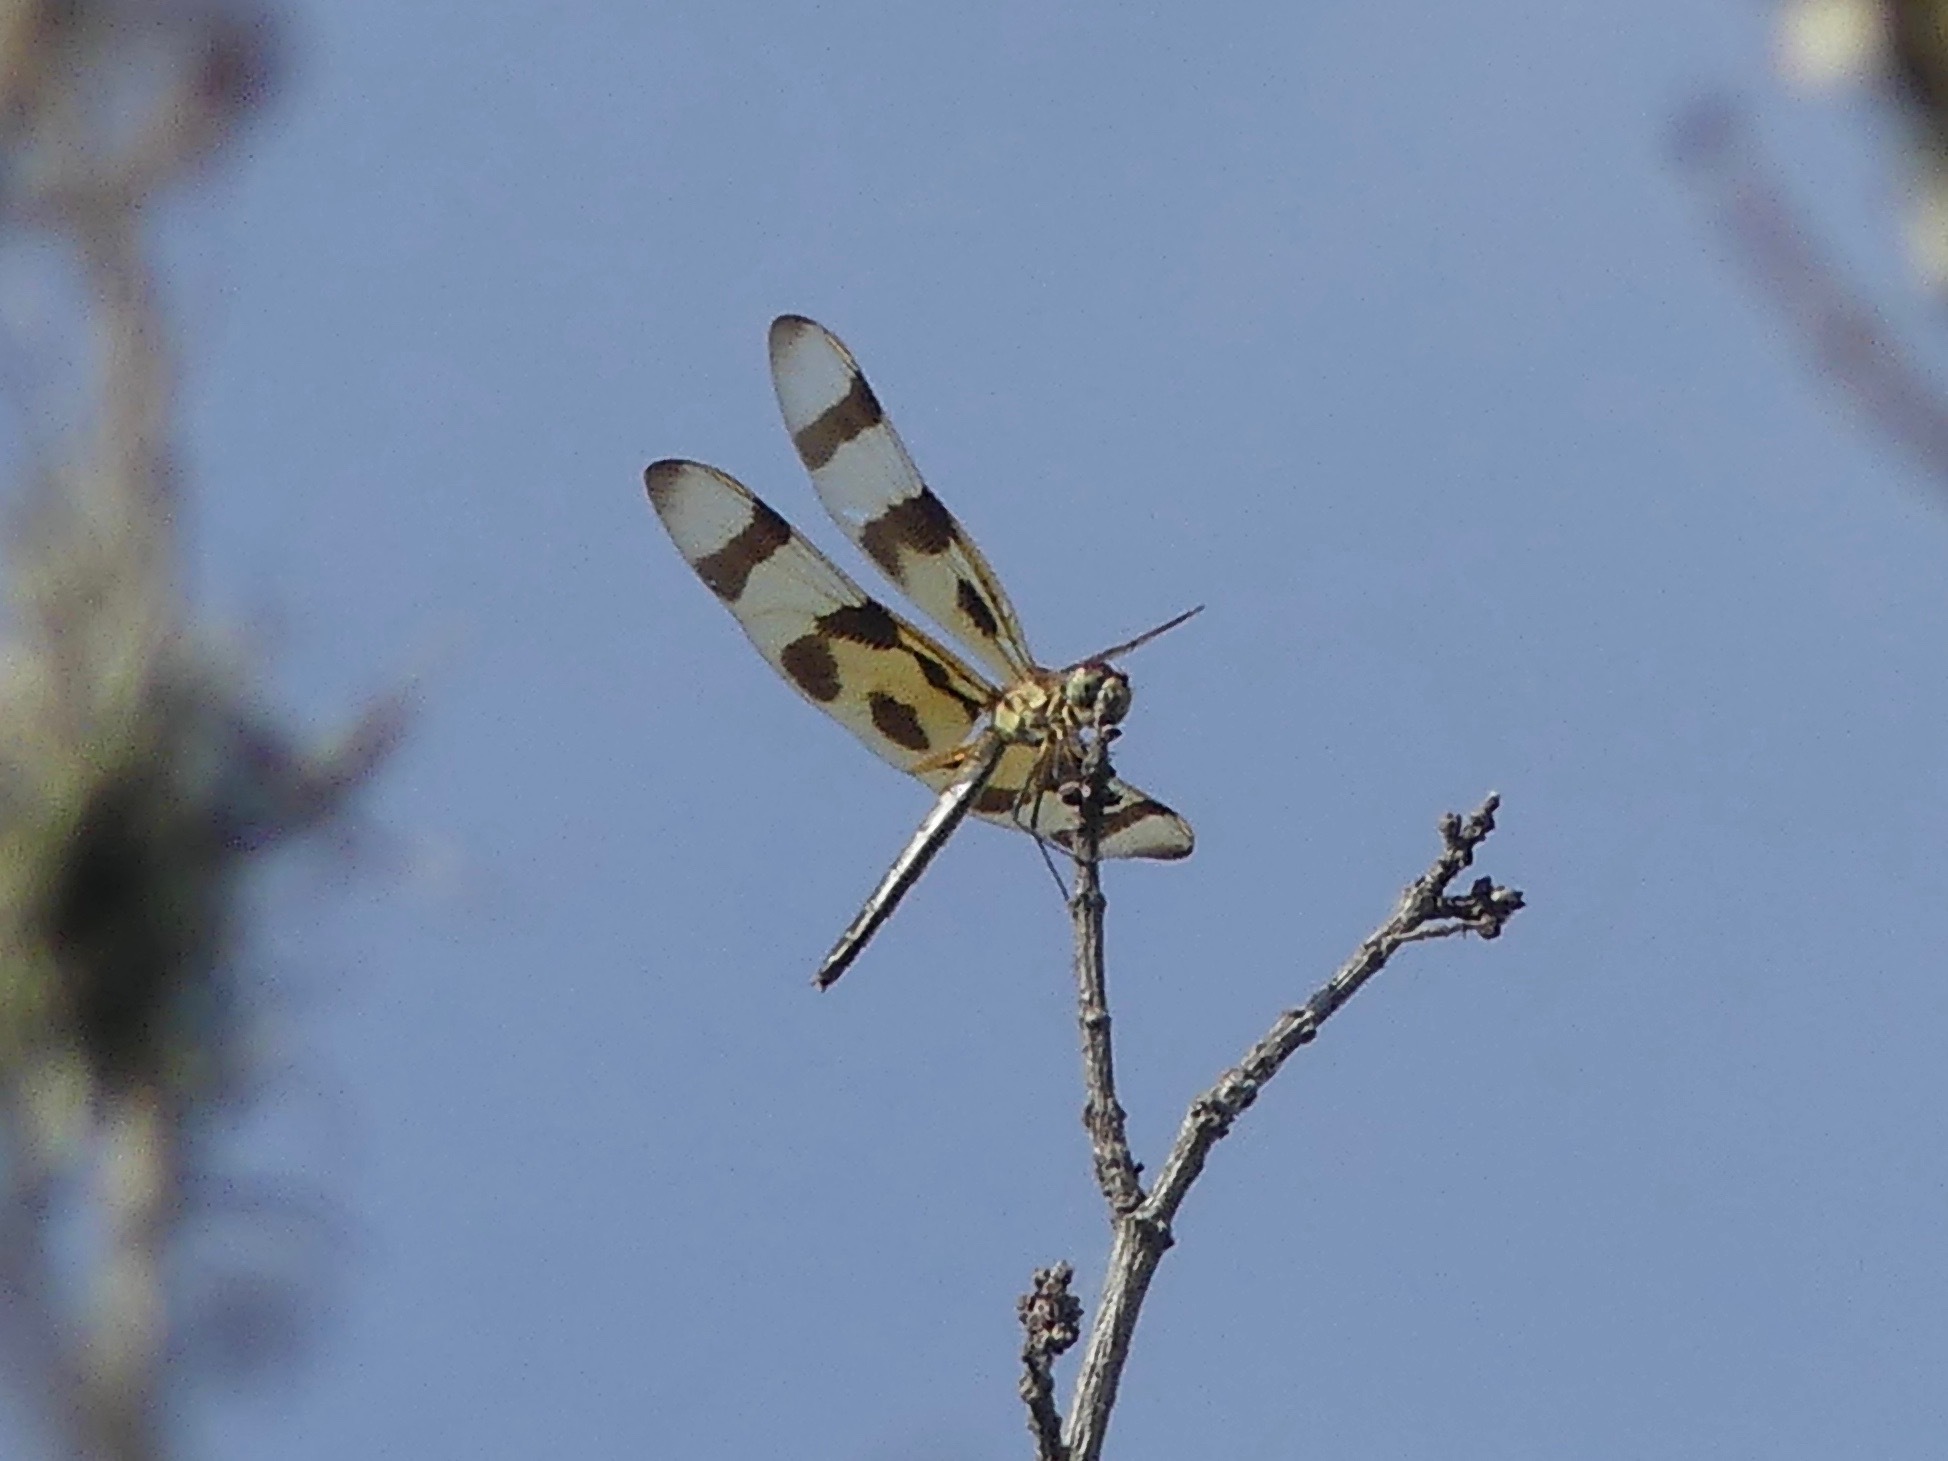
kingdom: Animalia
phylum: Arthropoda
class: Insecta
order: Odonata
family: Libellulidae
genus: Celithemis
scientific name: Celithemis eponina
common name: Halloween pennant
